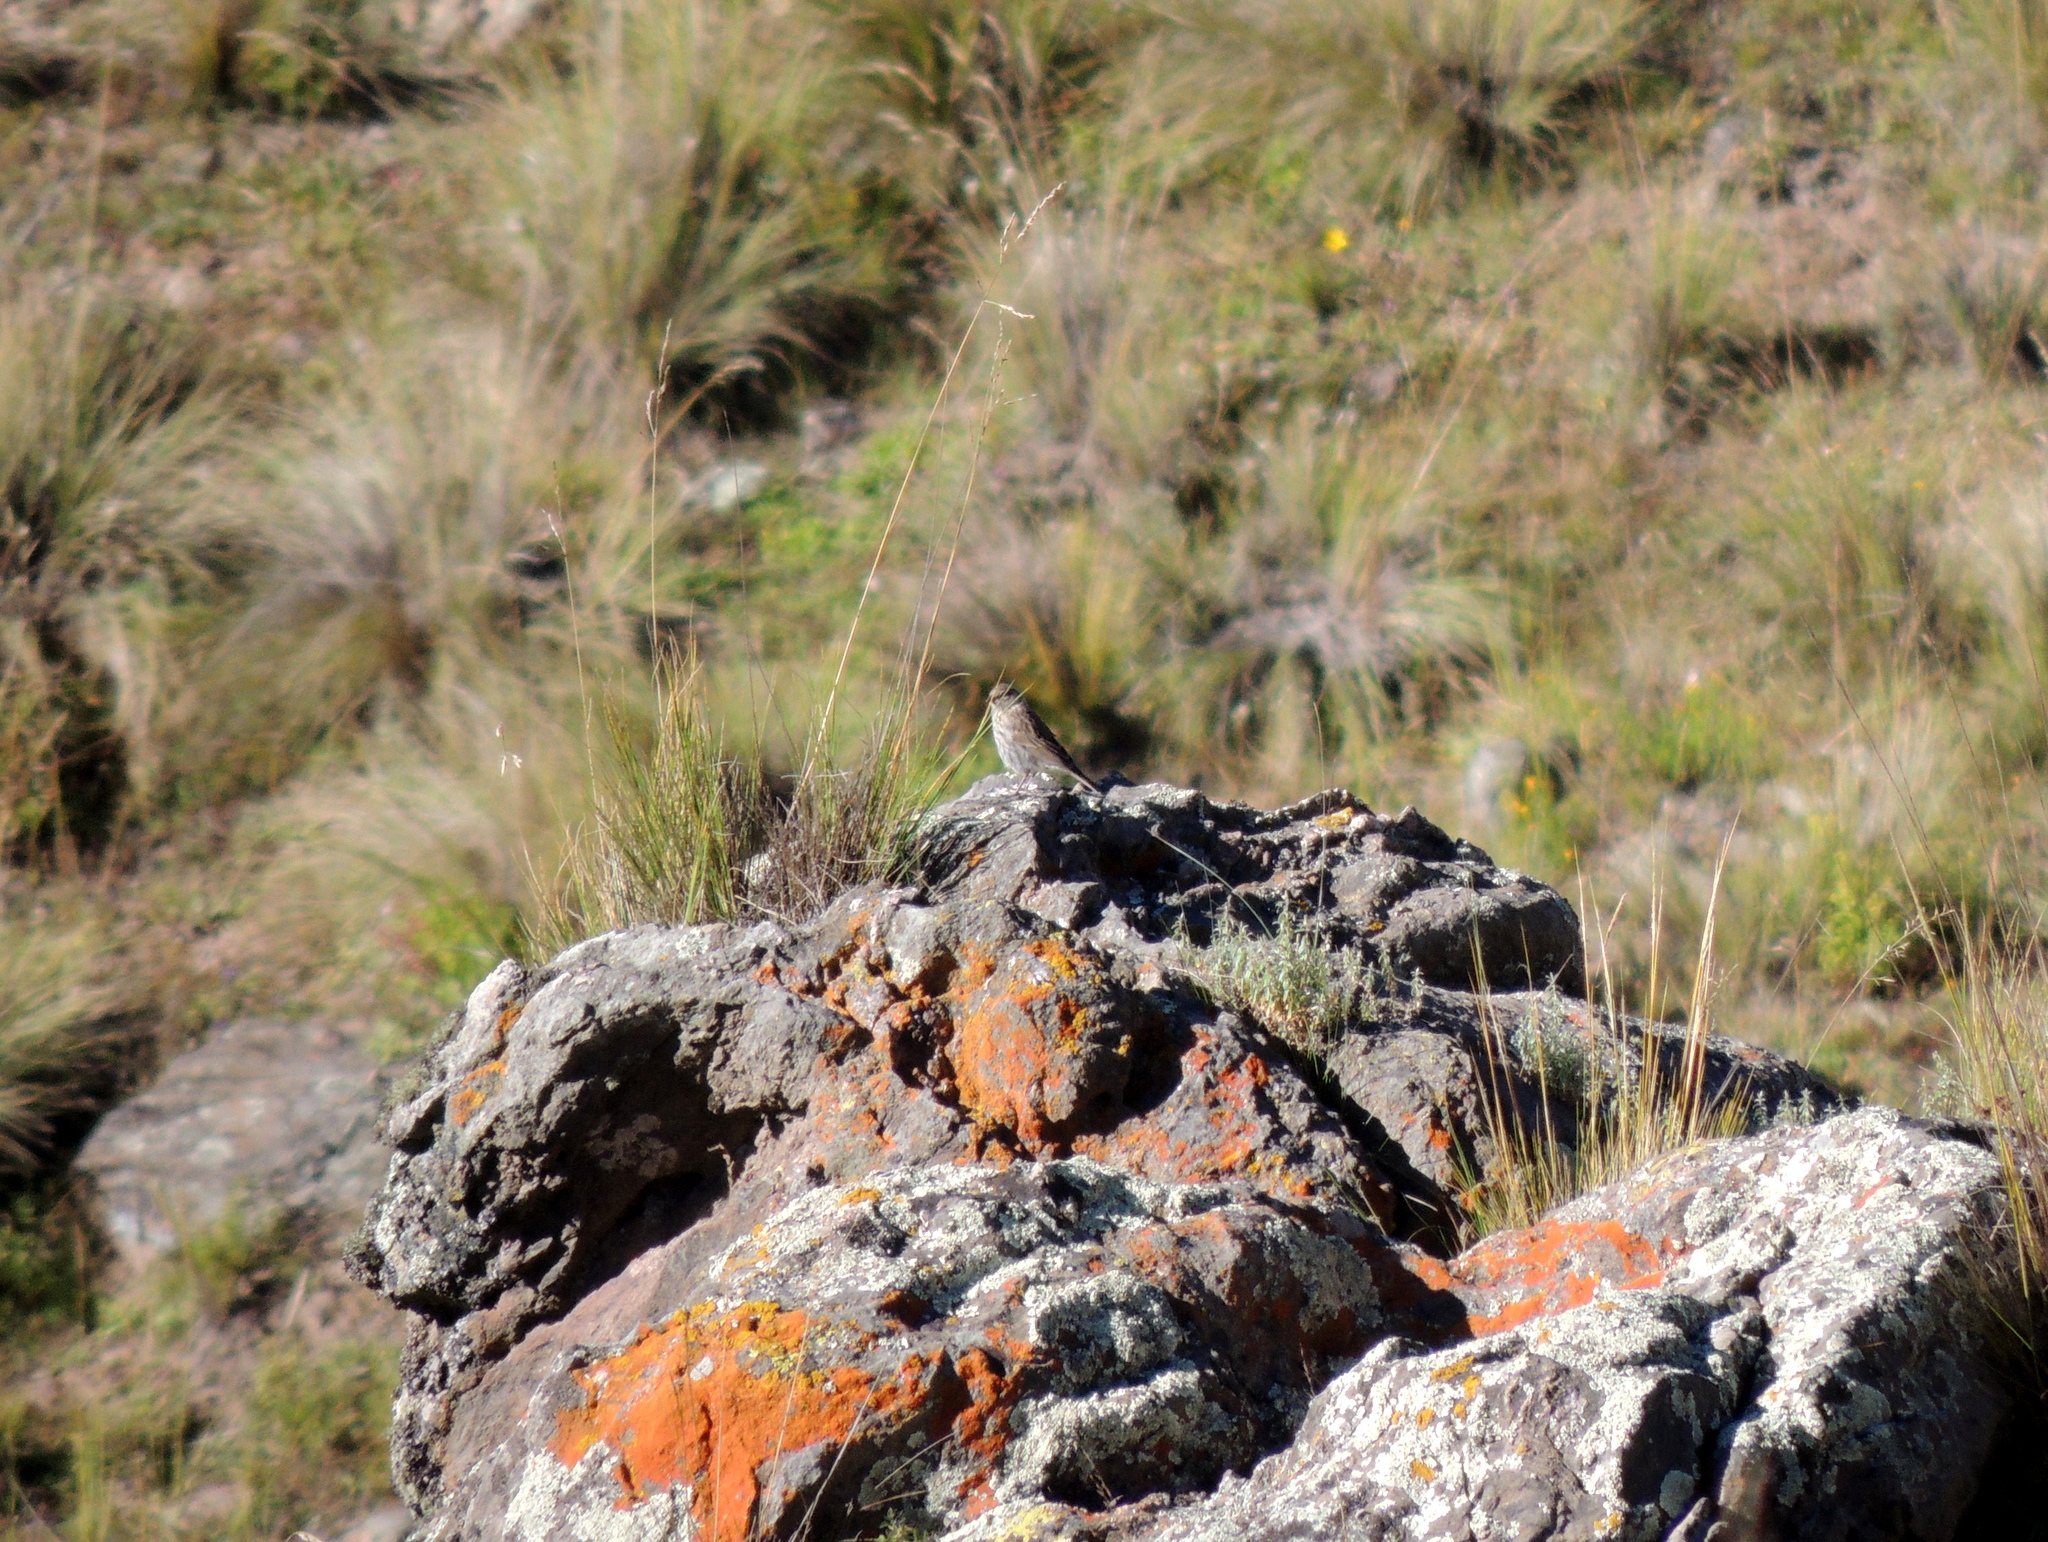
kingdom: Animalia
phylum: Chordata
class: Aves
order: Passeriformes
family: Thraupidae
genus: Geospizopsis
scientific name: Geospizopsis unicolor
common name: Plumbeous sierra-finch
